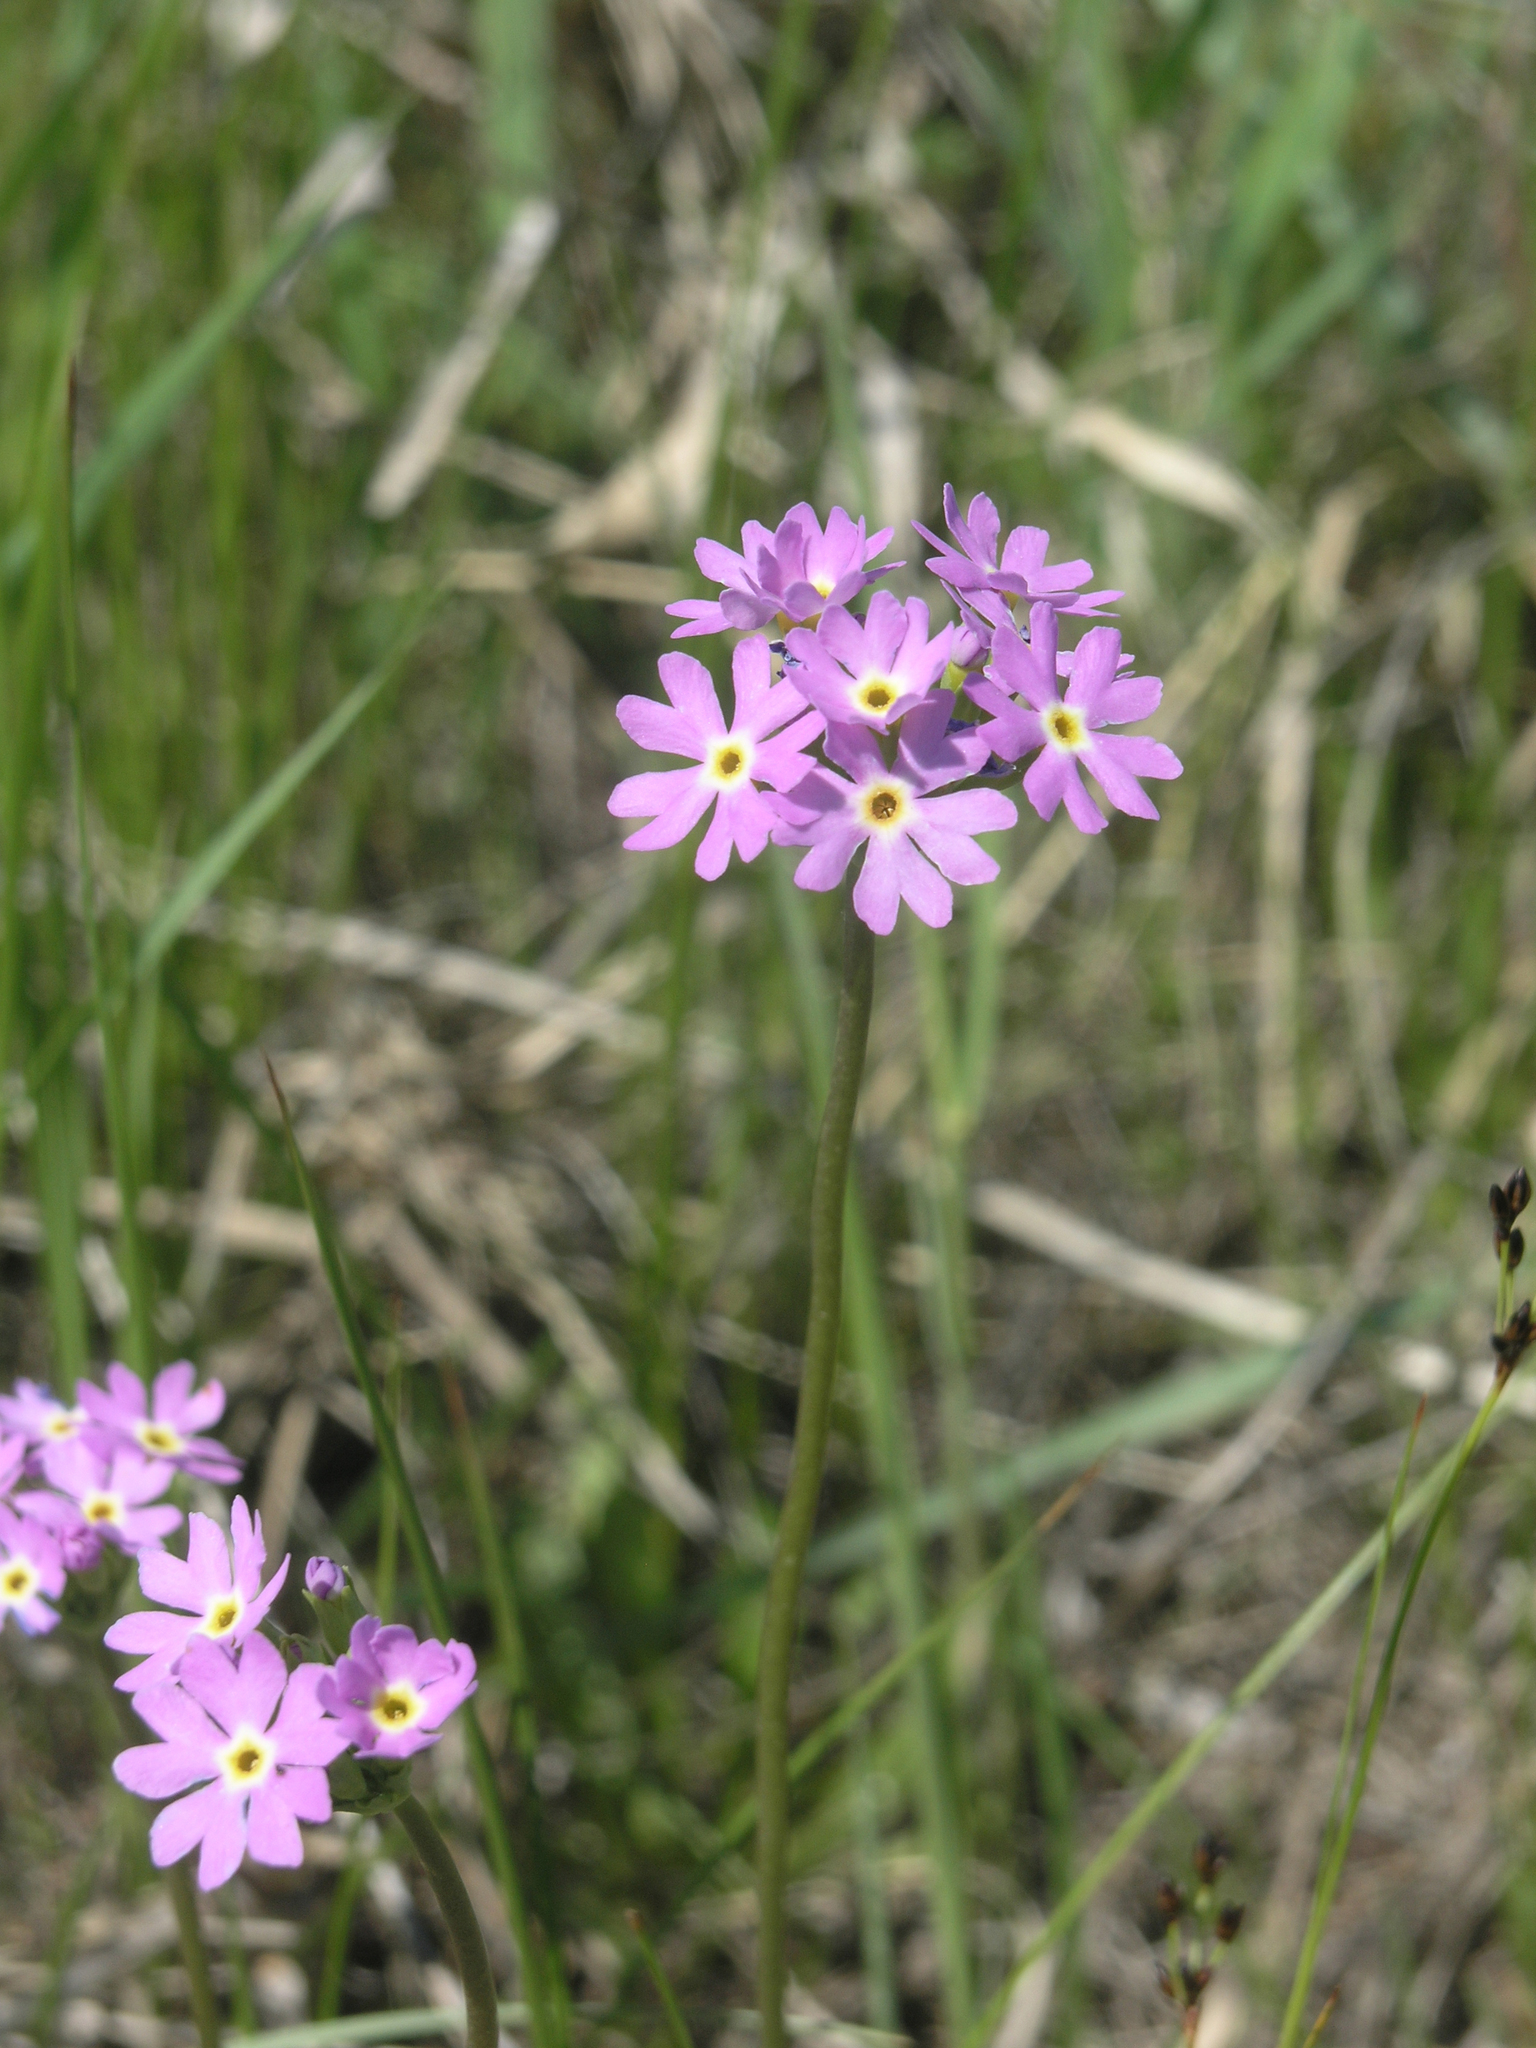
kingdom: Plantae
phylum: Tracheophyta
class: Magnoliopsida
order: Ericales
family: Primulaceae
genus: Primula
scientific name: Primula longiscapa
